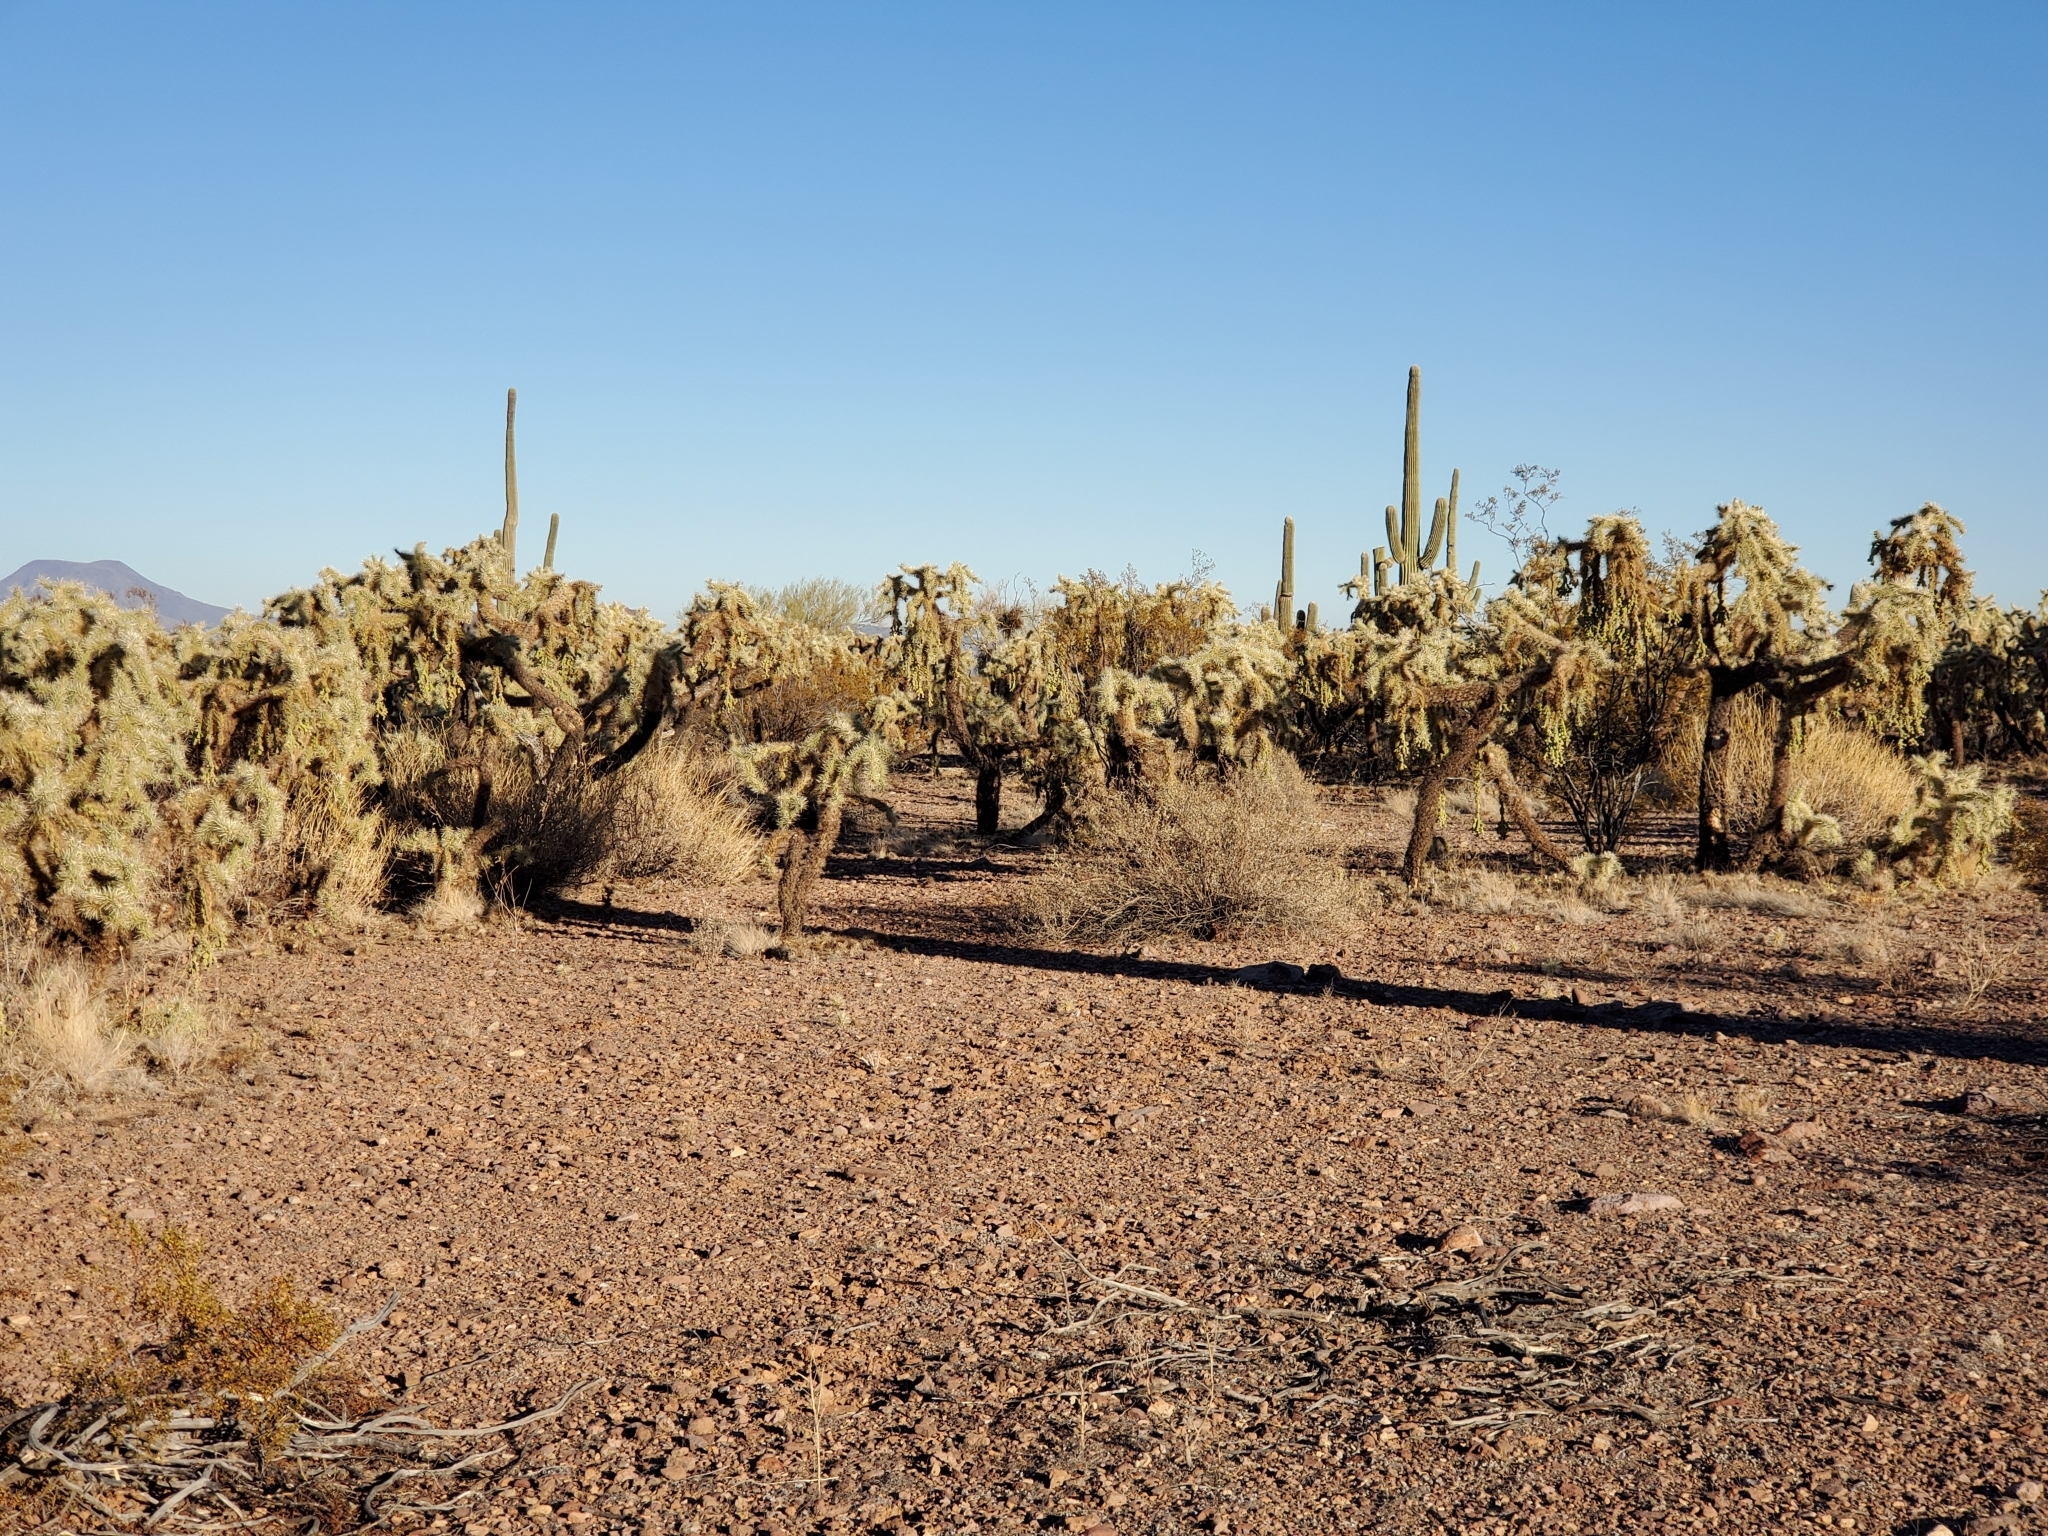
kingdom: Plantae
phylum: Tracheophyta
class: Magnoliopsida
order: Caryophyllales
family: Cactaceae
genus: Cylindropuntia
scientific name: Cylindropuntia fulgida
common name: Jumping cholla
